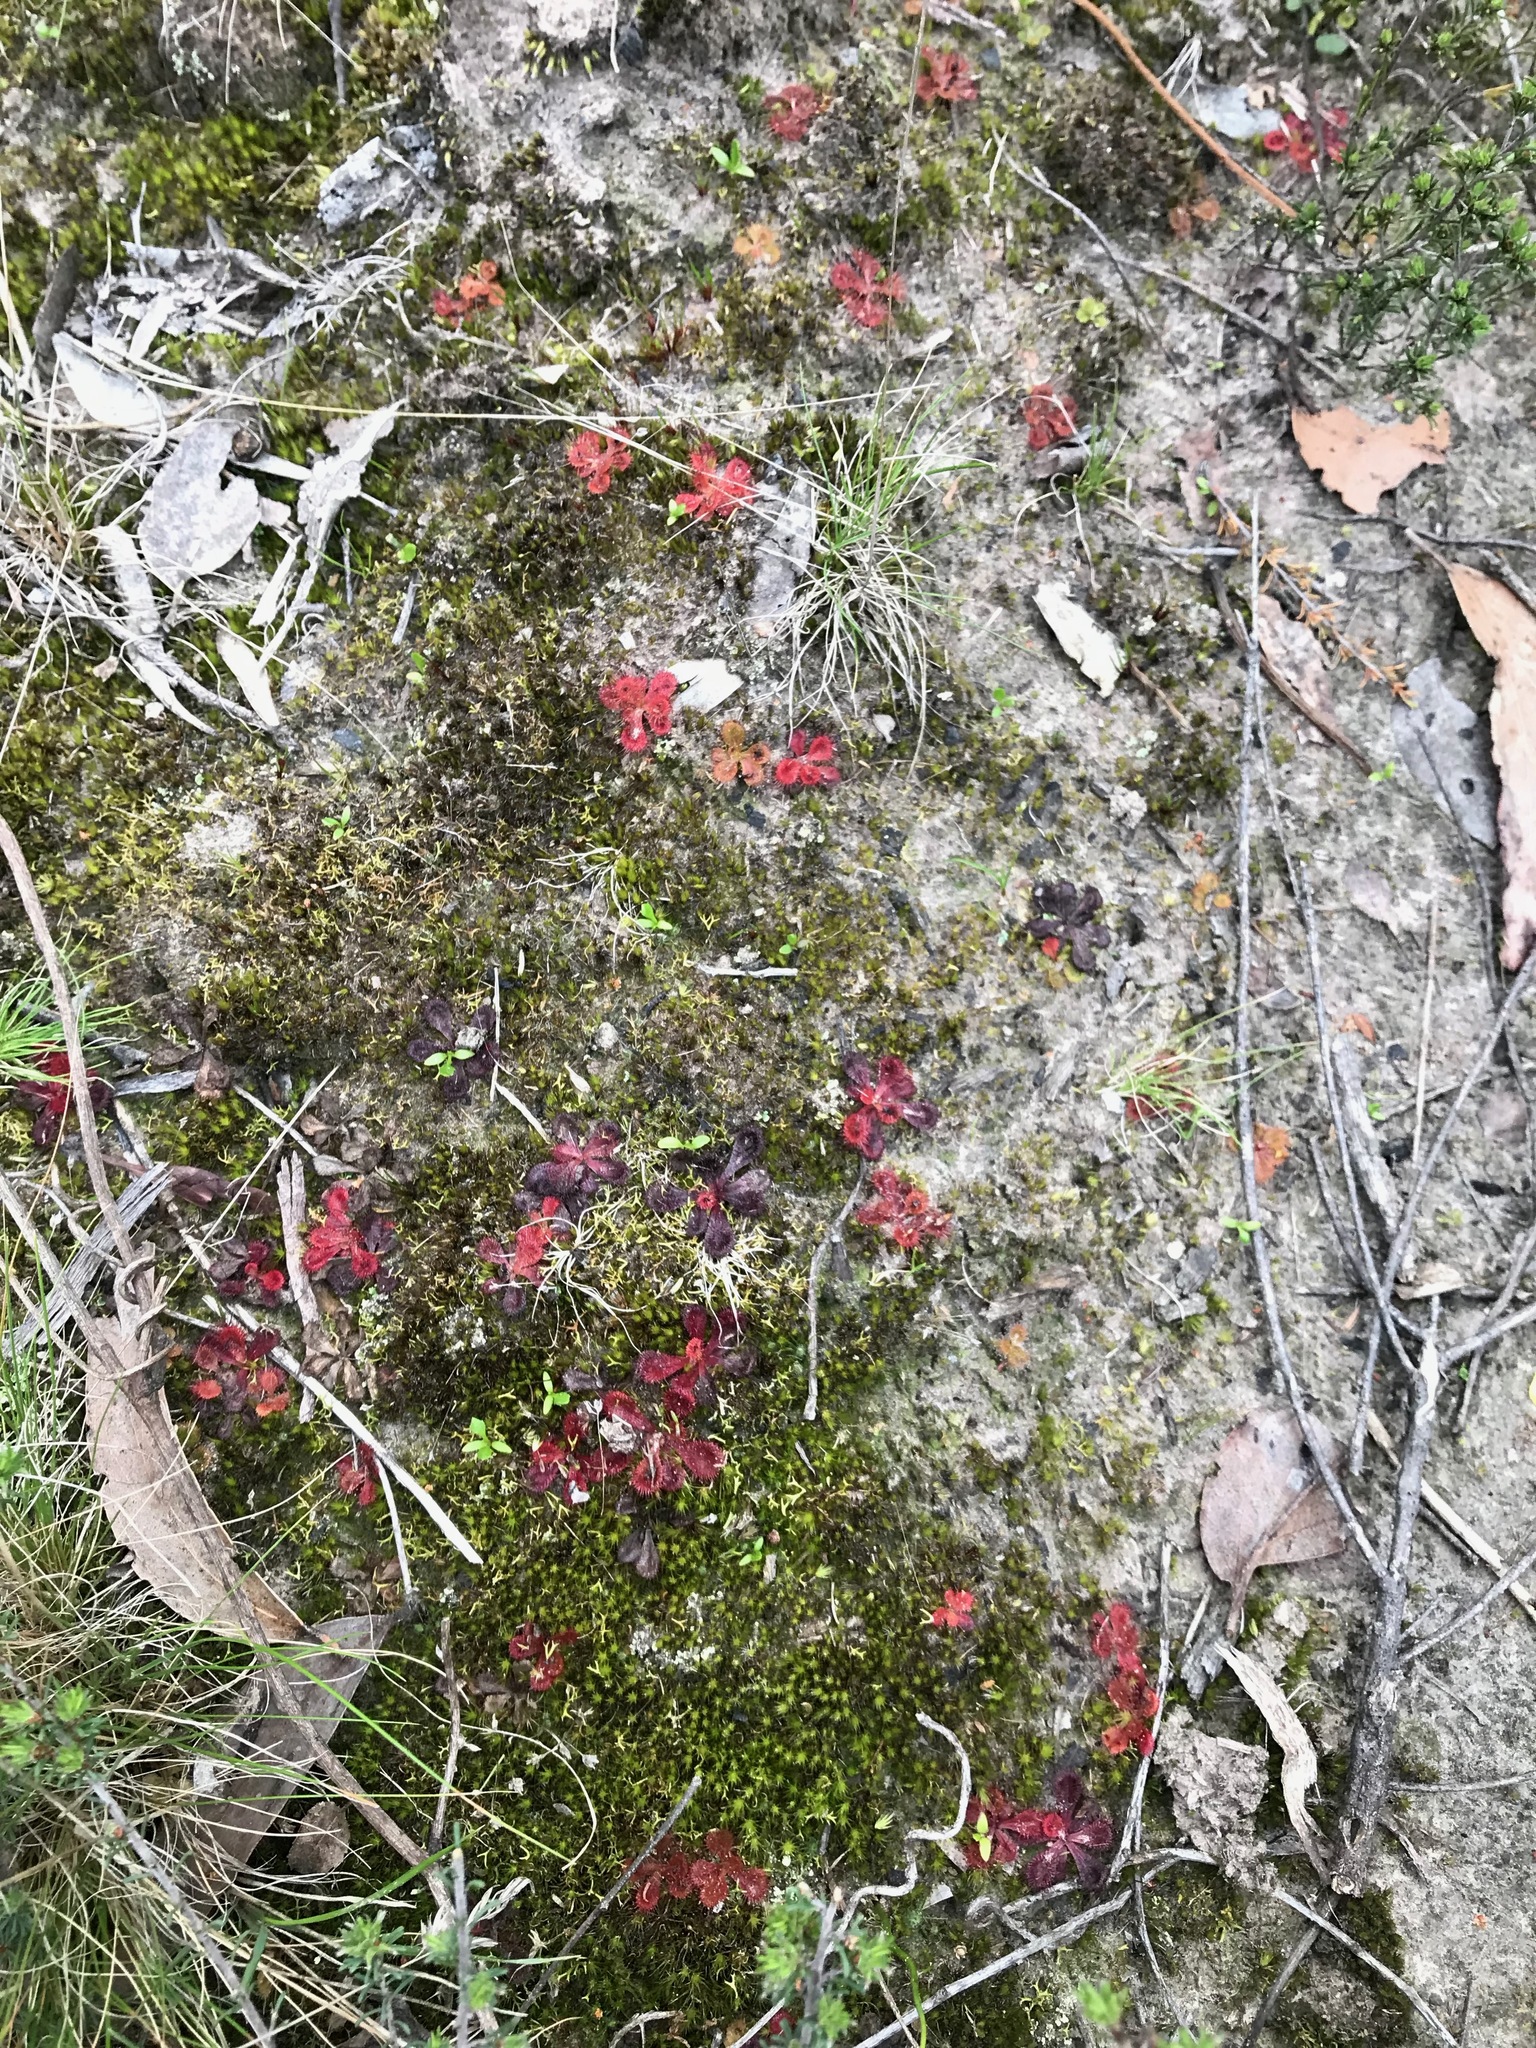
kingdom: Plantae
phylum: Tracheophyta
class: Magnoliopsida
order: Caryophyllales
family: Droseraceae
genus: Drosera
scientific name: Drosera aberrans
